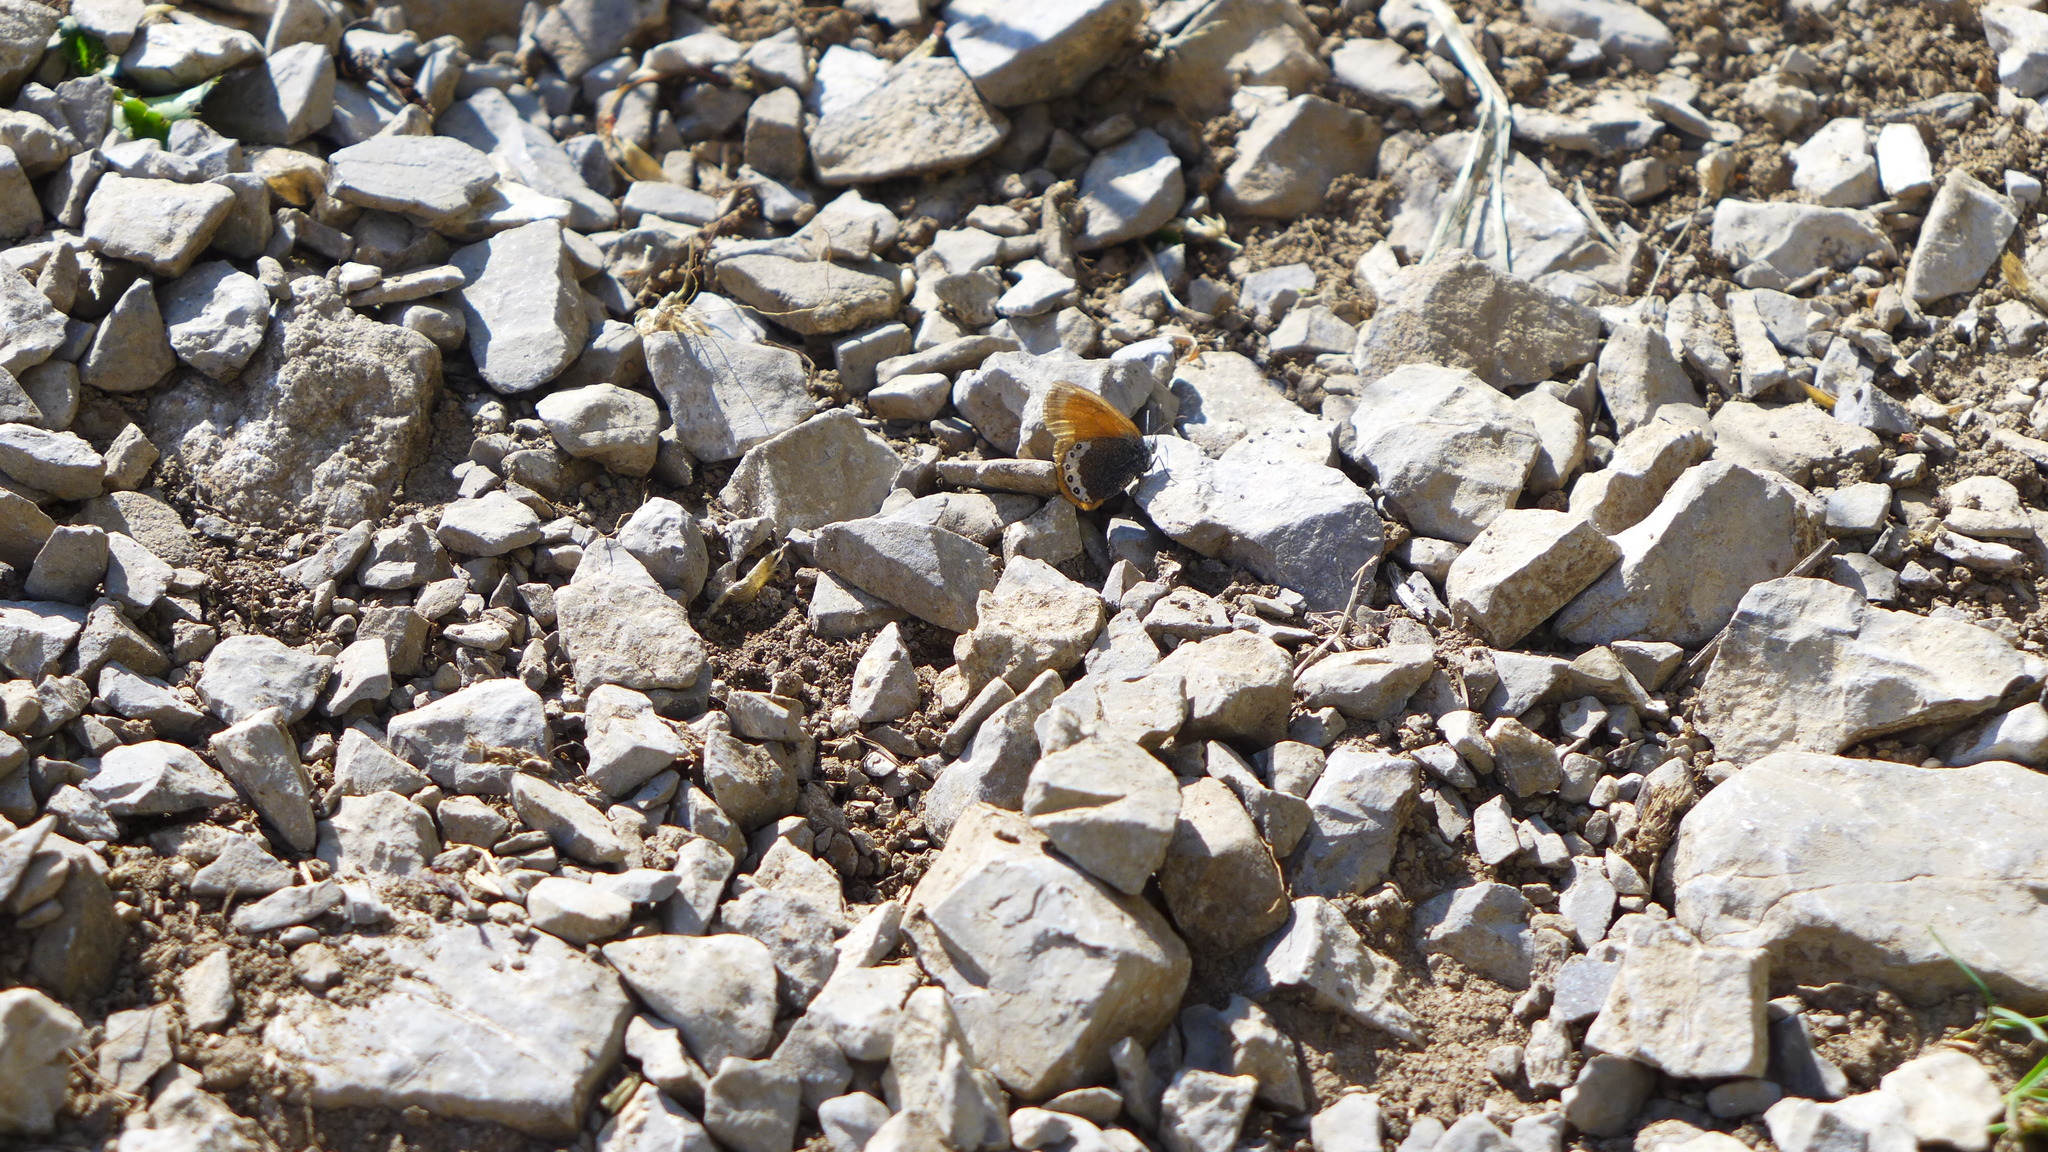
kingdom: Animalia
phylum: Arthropoda
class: Insecta
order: Lepidoptera
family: Nymphalidae
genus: Coenonympha
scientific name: Coenonympha
